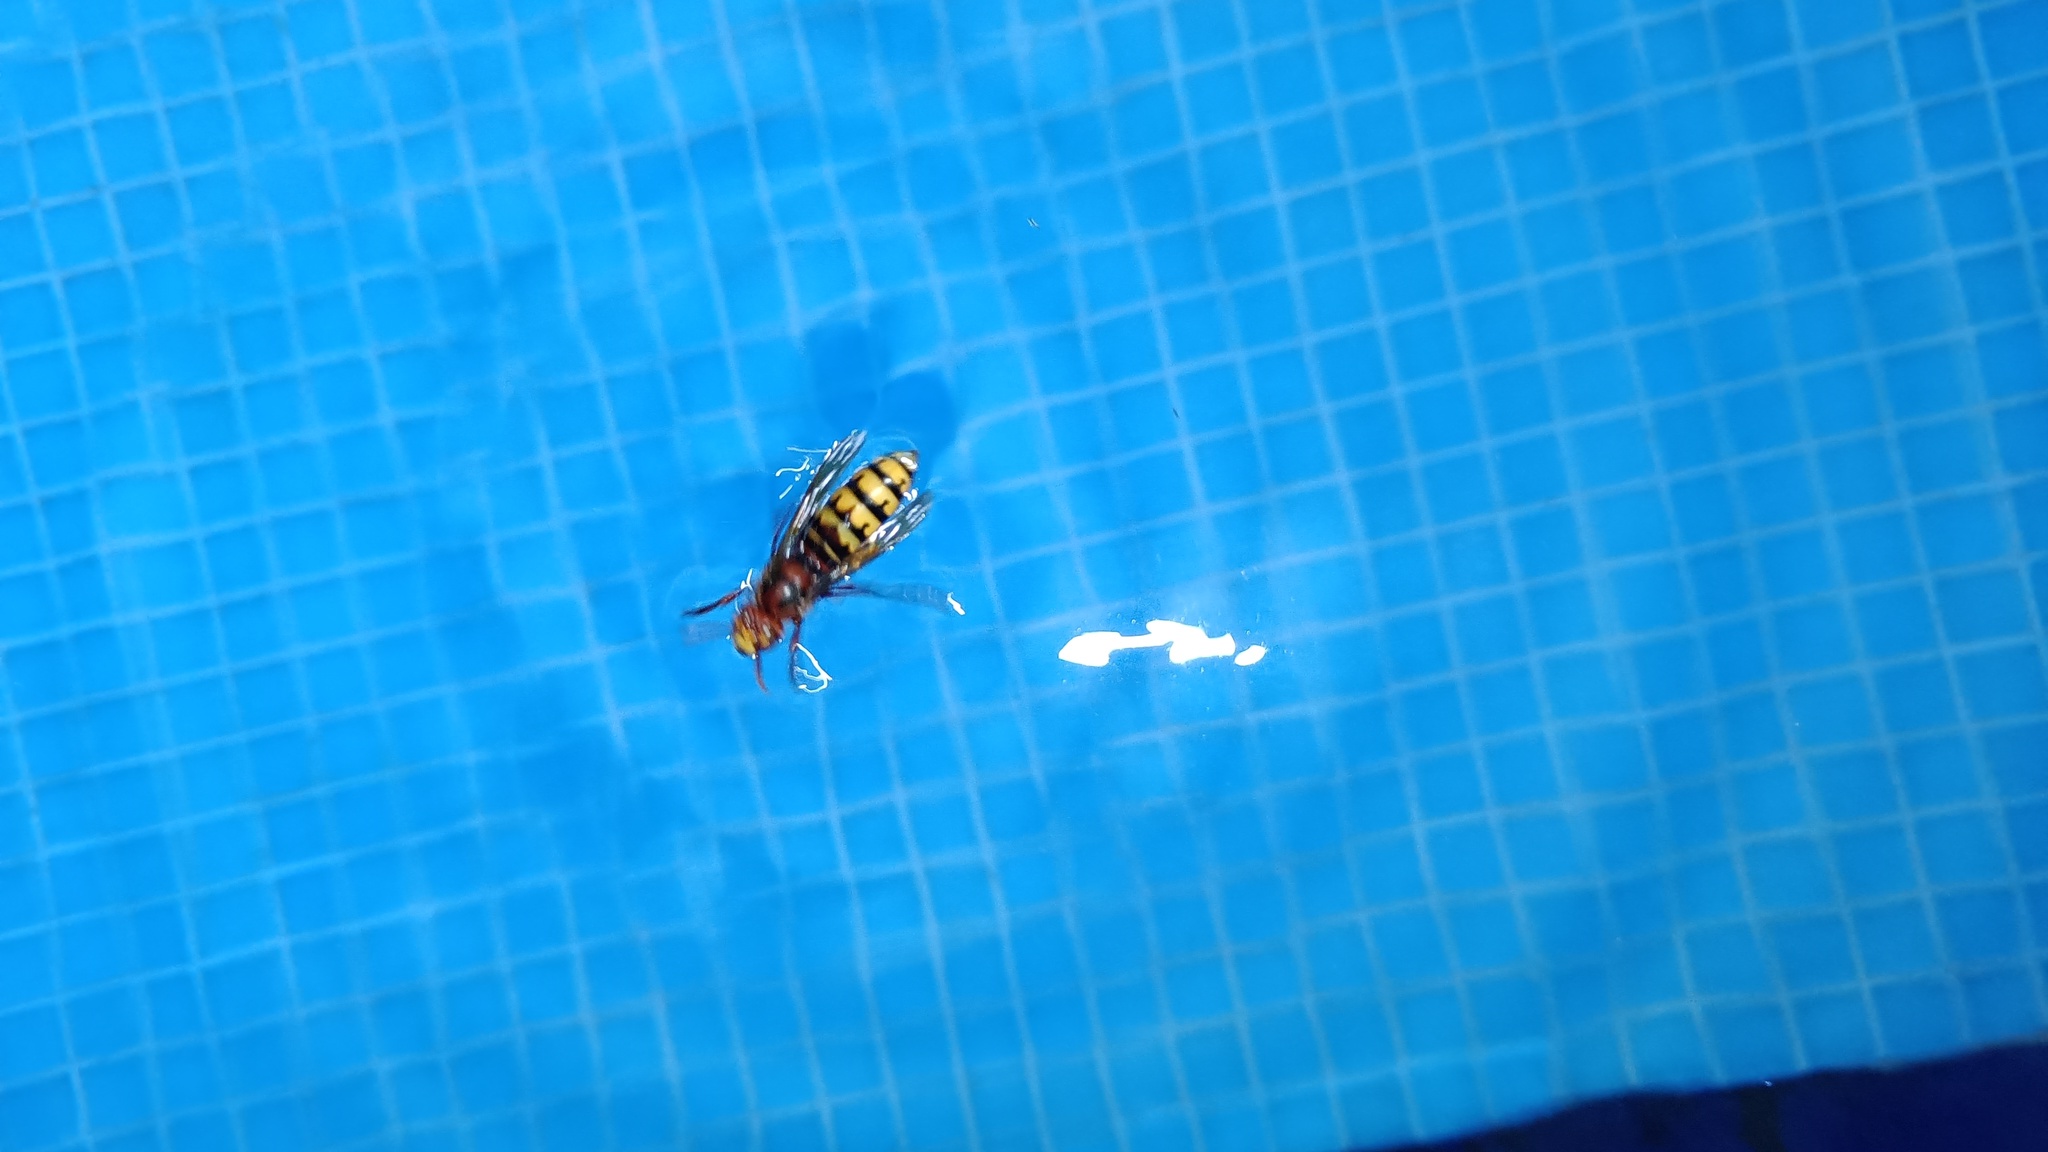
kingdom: Animalia
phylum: Arthropoda
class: Insecta
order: Hymenoptera
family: Vespidae
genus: Vespa
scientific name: Vespa crabro
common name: Hornet
